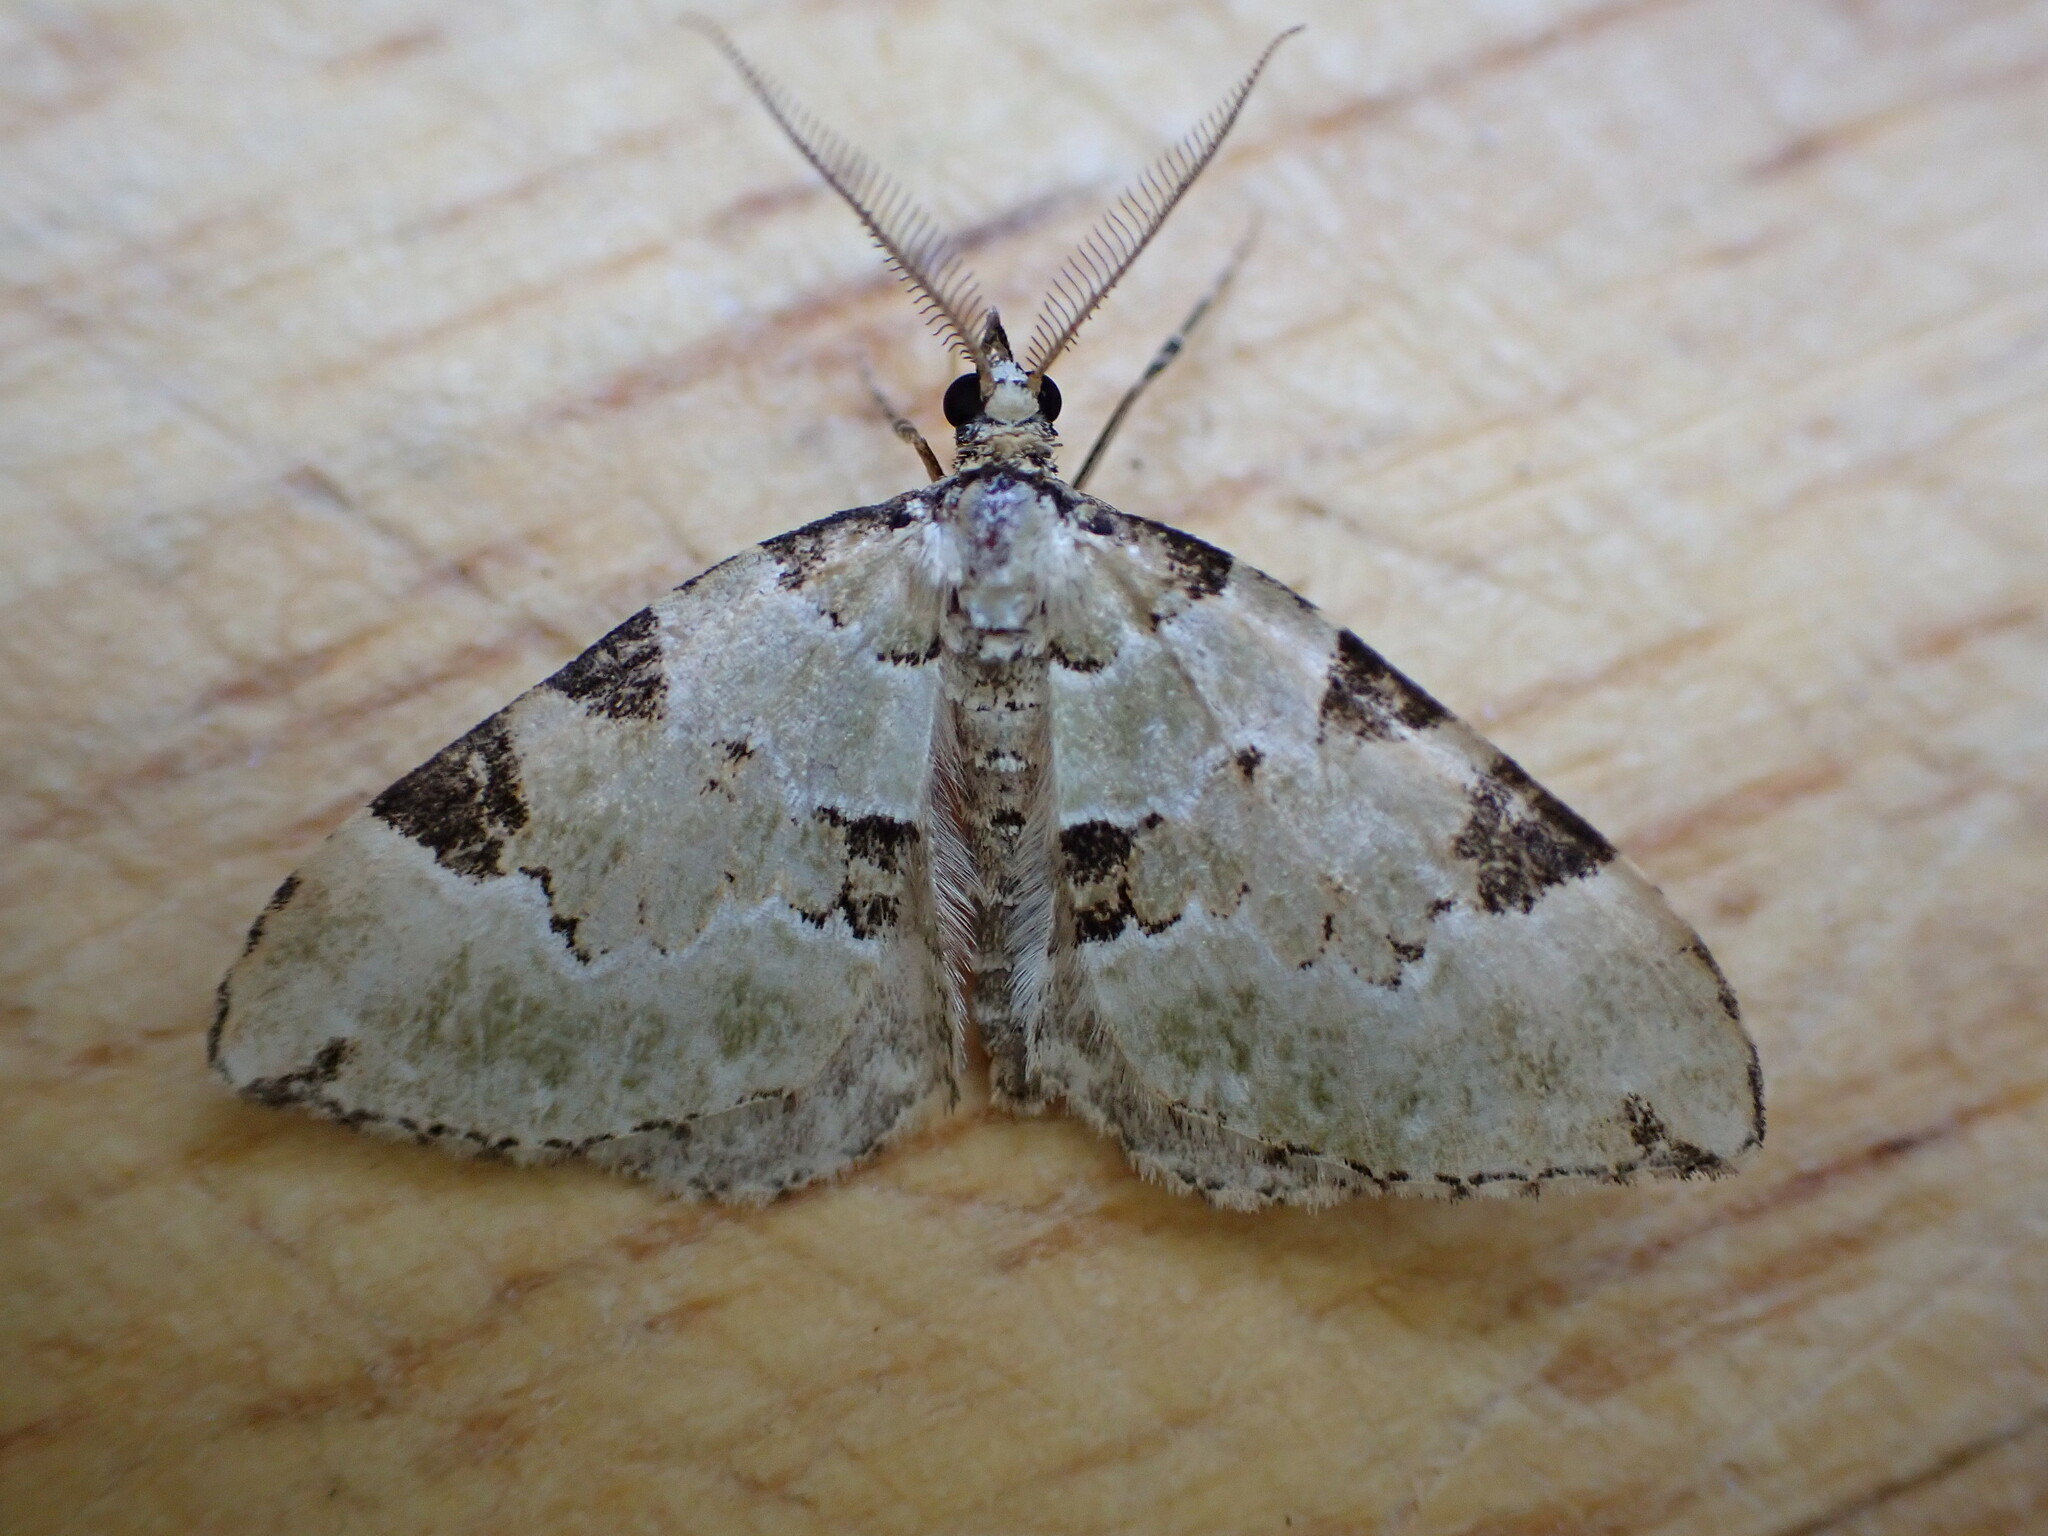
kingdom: Animalia
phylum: Arthropoda
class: Insecta
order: Lepidoptera
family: Geometridae
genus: Colostygia
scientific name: Colostygia pectinataria
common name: Green carpet
